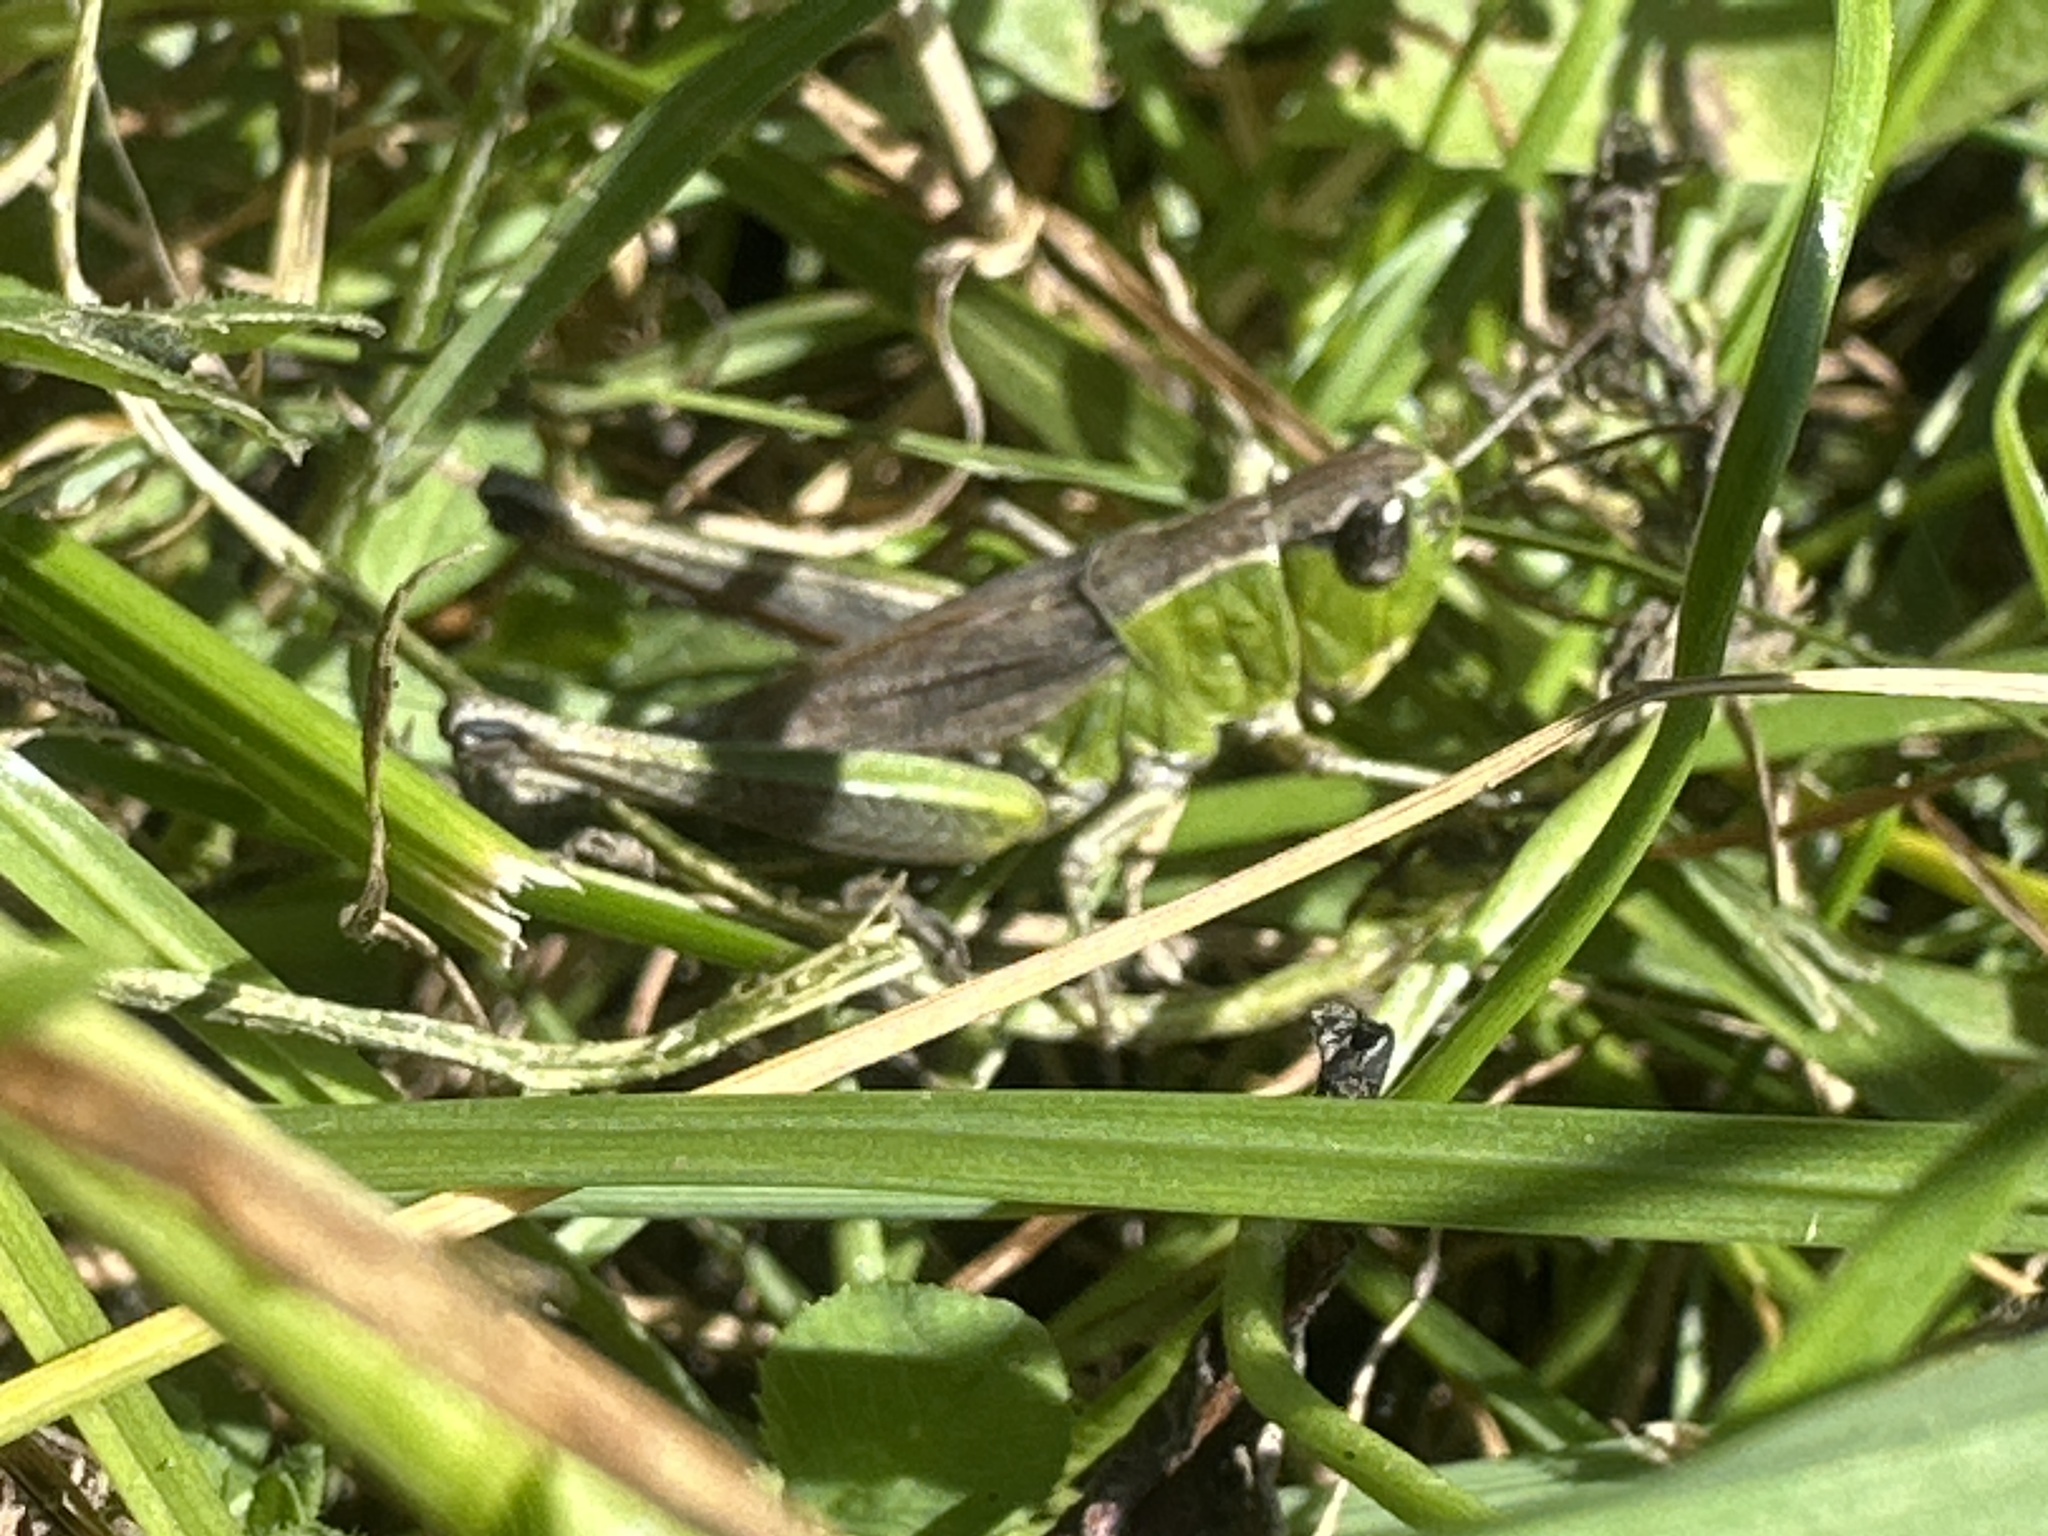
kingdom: Animalia
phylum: Arthropoda
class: Insecta
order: Orthoptera
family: Acrididae
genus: Pseudochorthippus
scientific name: Pseudochorthippus parallelus
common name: Meadow grasshopper
